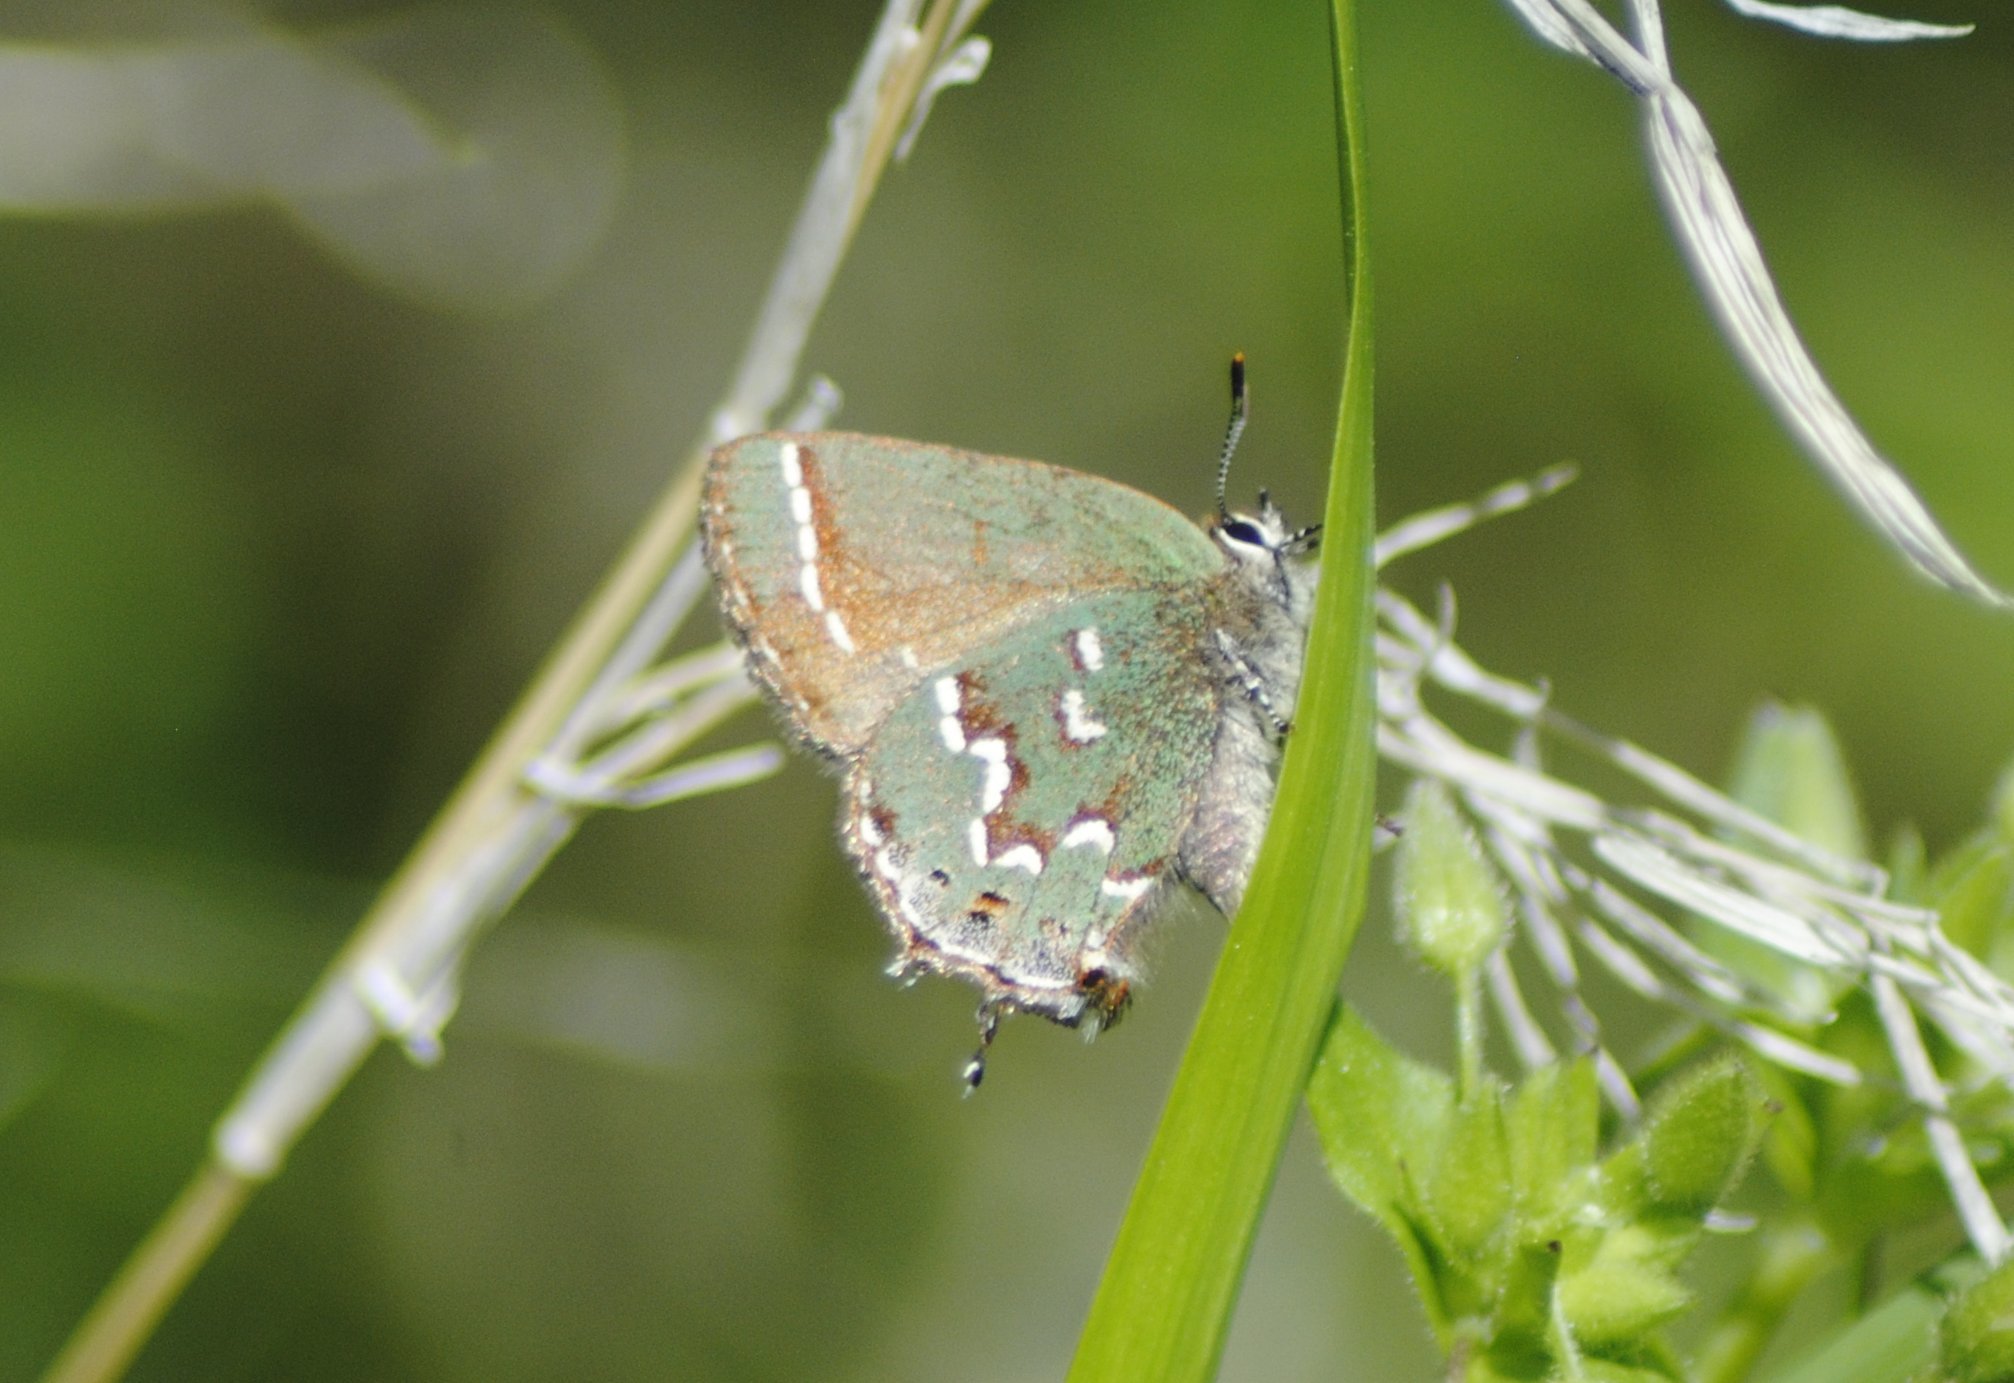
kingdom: Animalia
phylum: Arthropoda
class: Insecta
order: Lepidoptera
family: Lycaenidae
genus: Mitoura
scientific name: Mitoura gryneus
